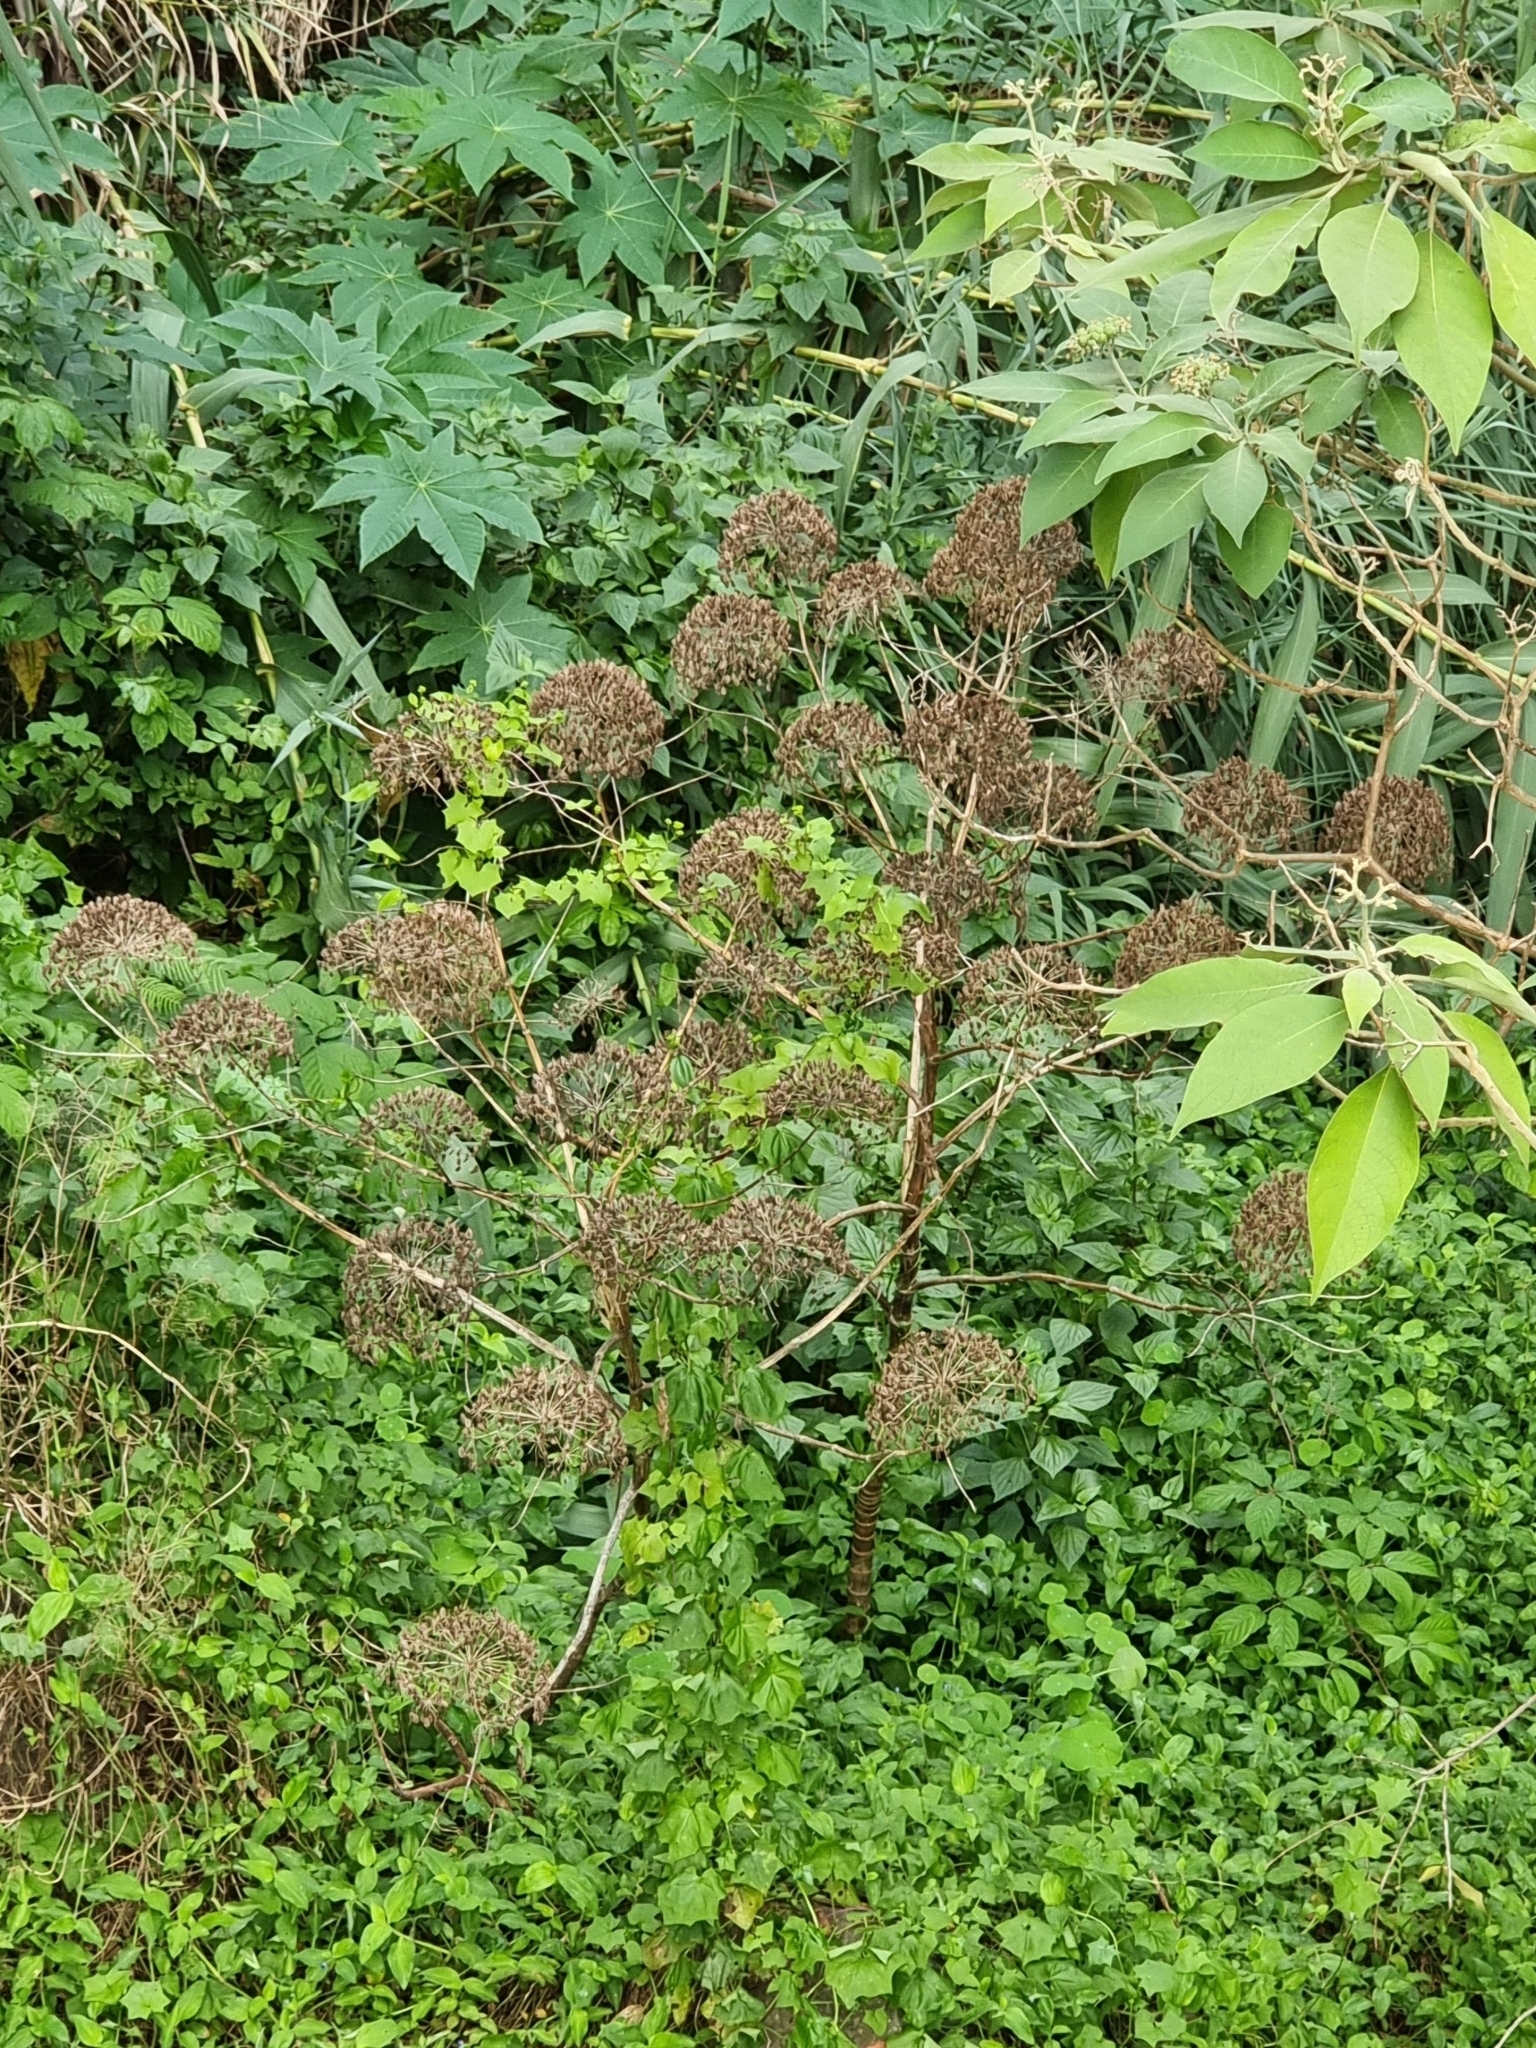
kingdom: Plantae
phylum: Tracheophyta
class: Magnoliopsida
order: Apiales
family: Apiaceae
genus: Daucus
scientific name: Daucus decipiens
